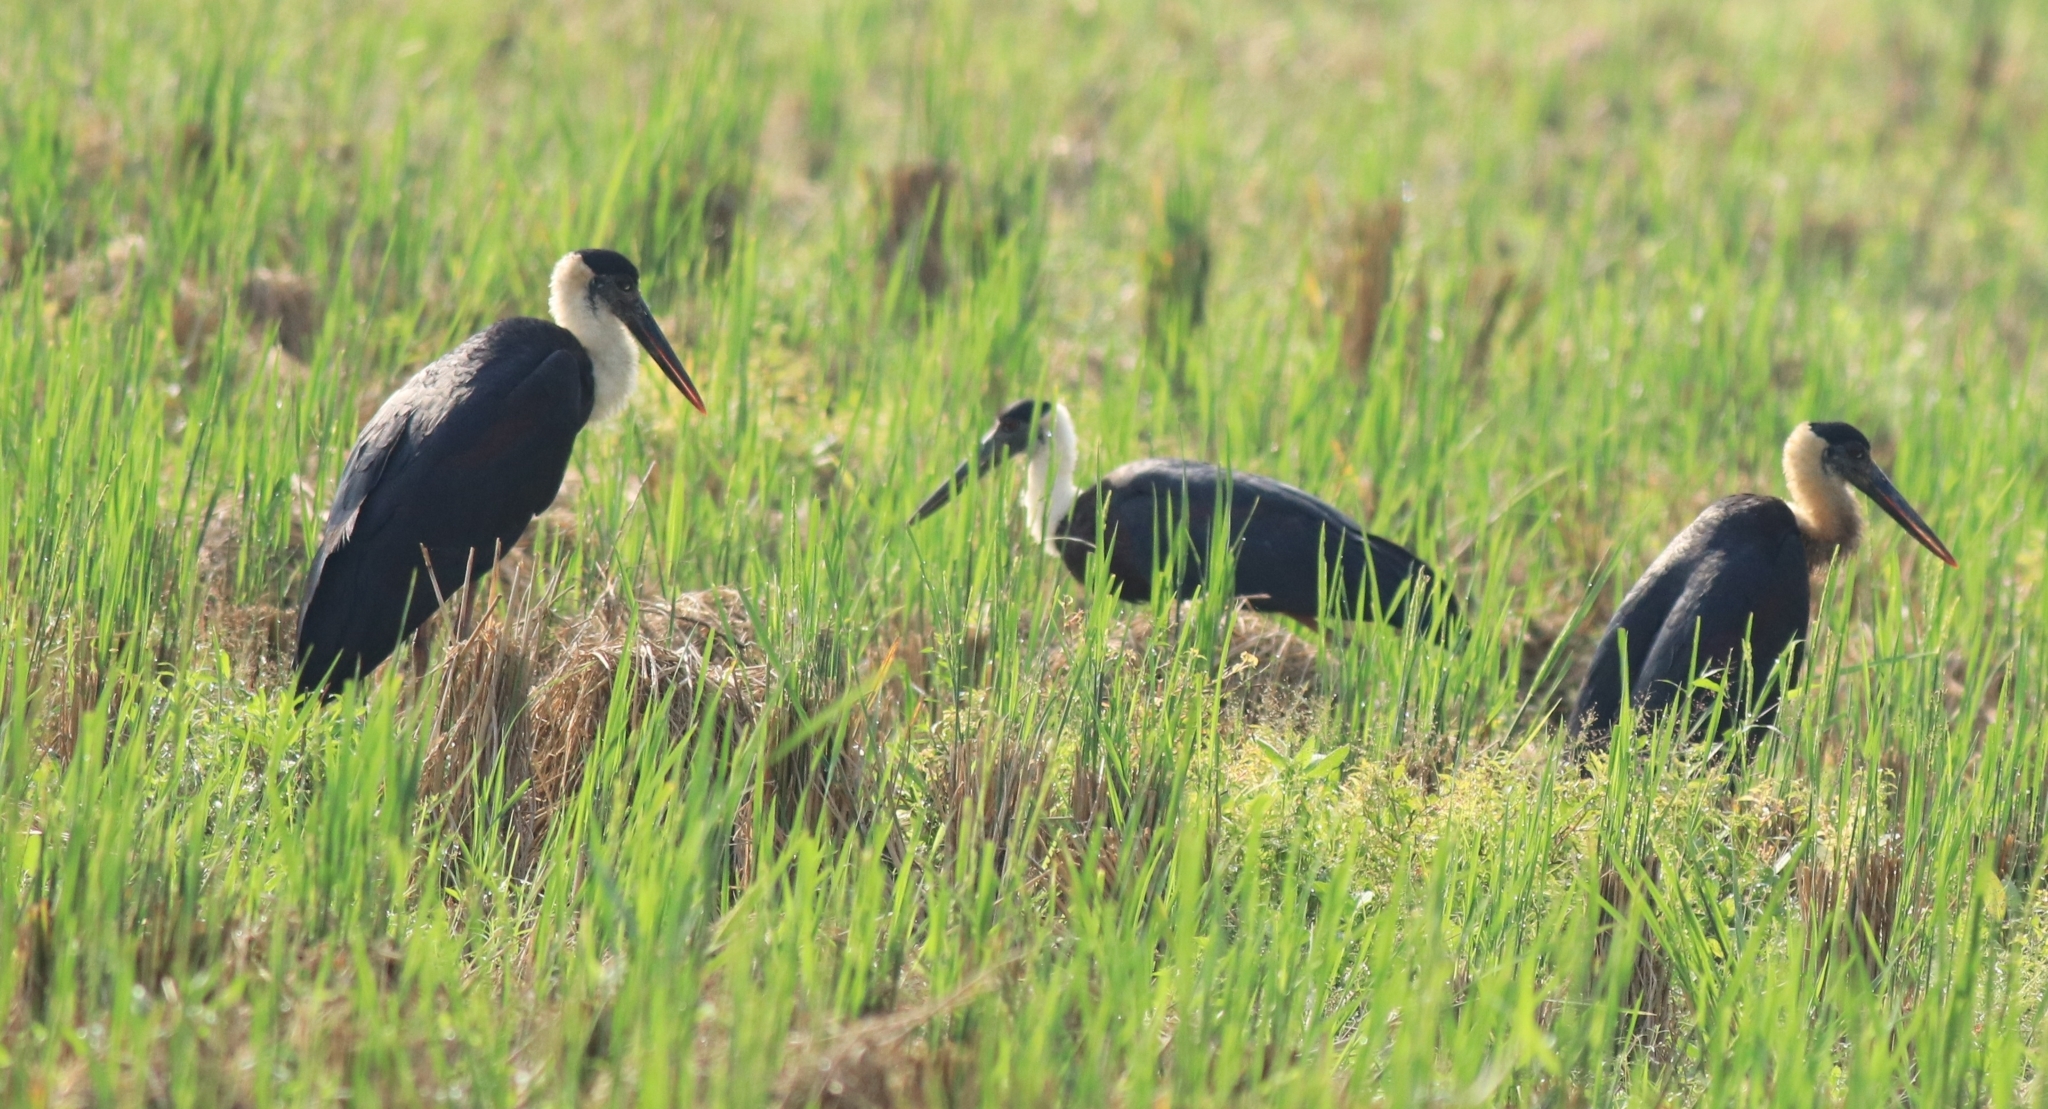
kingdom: Animalia
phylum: Chordata
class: Aves
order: Ciconiiformes
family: Ciconiidae
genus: Ciconia
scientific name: Ciconia episcopus
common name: Woolly-necked stork
